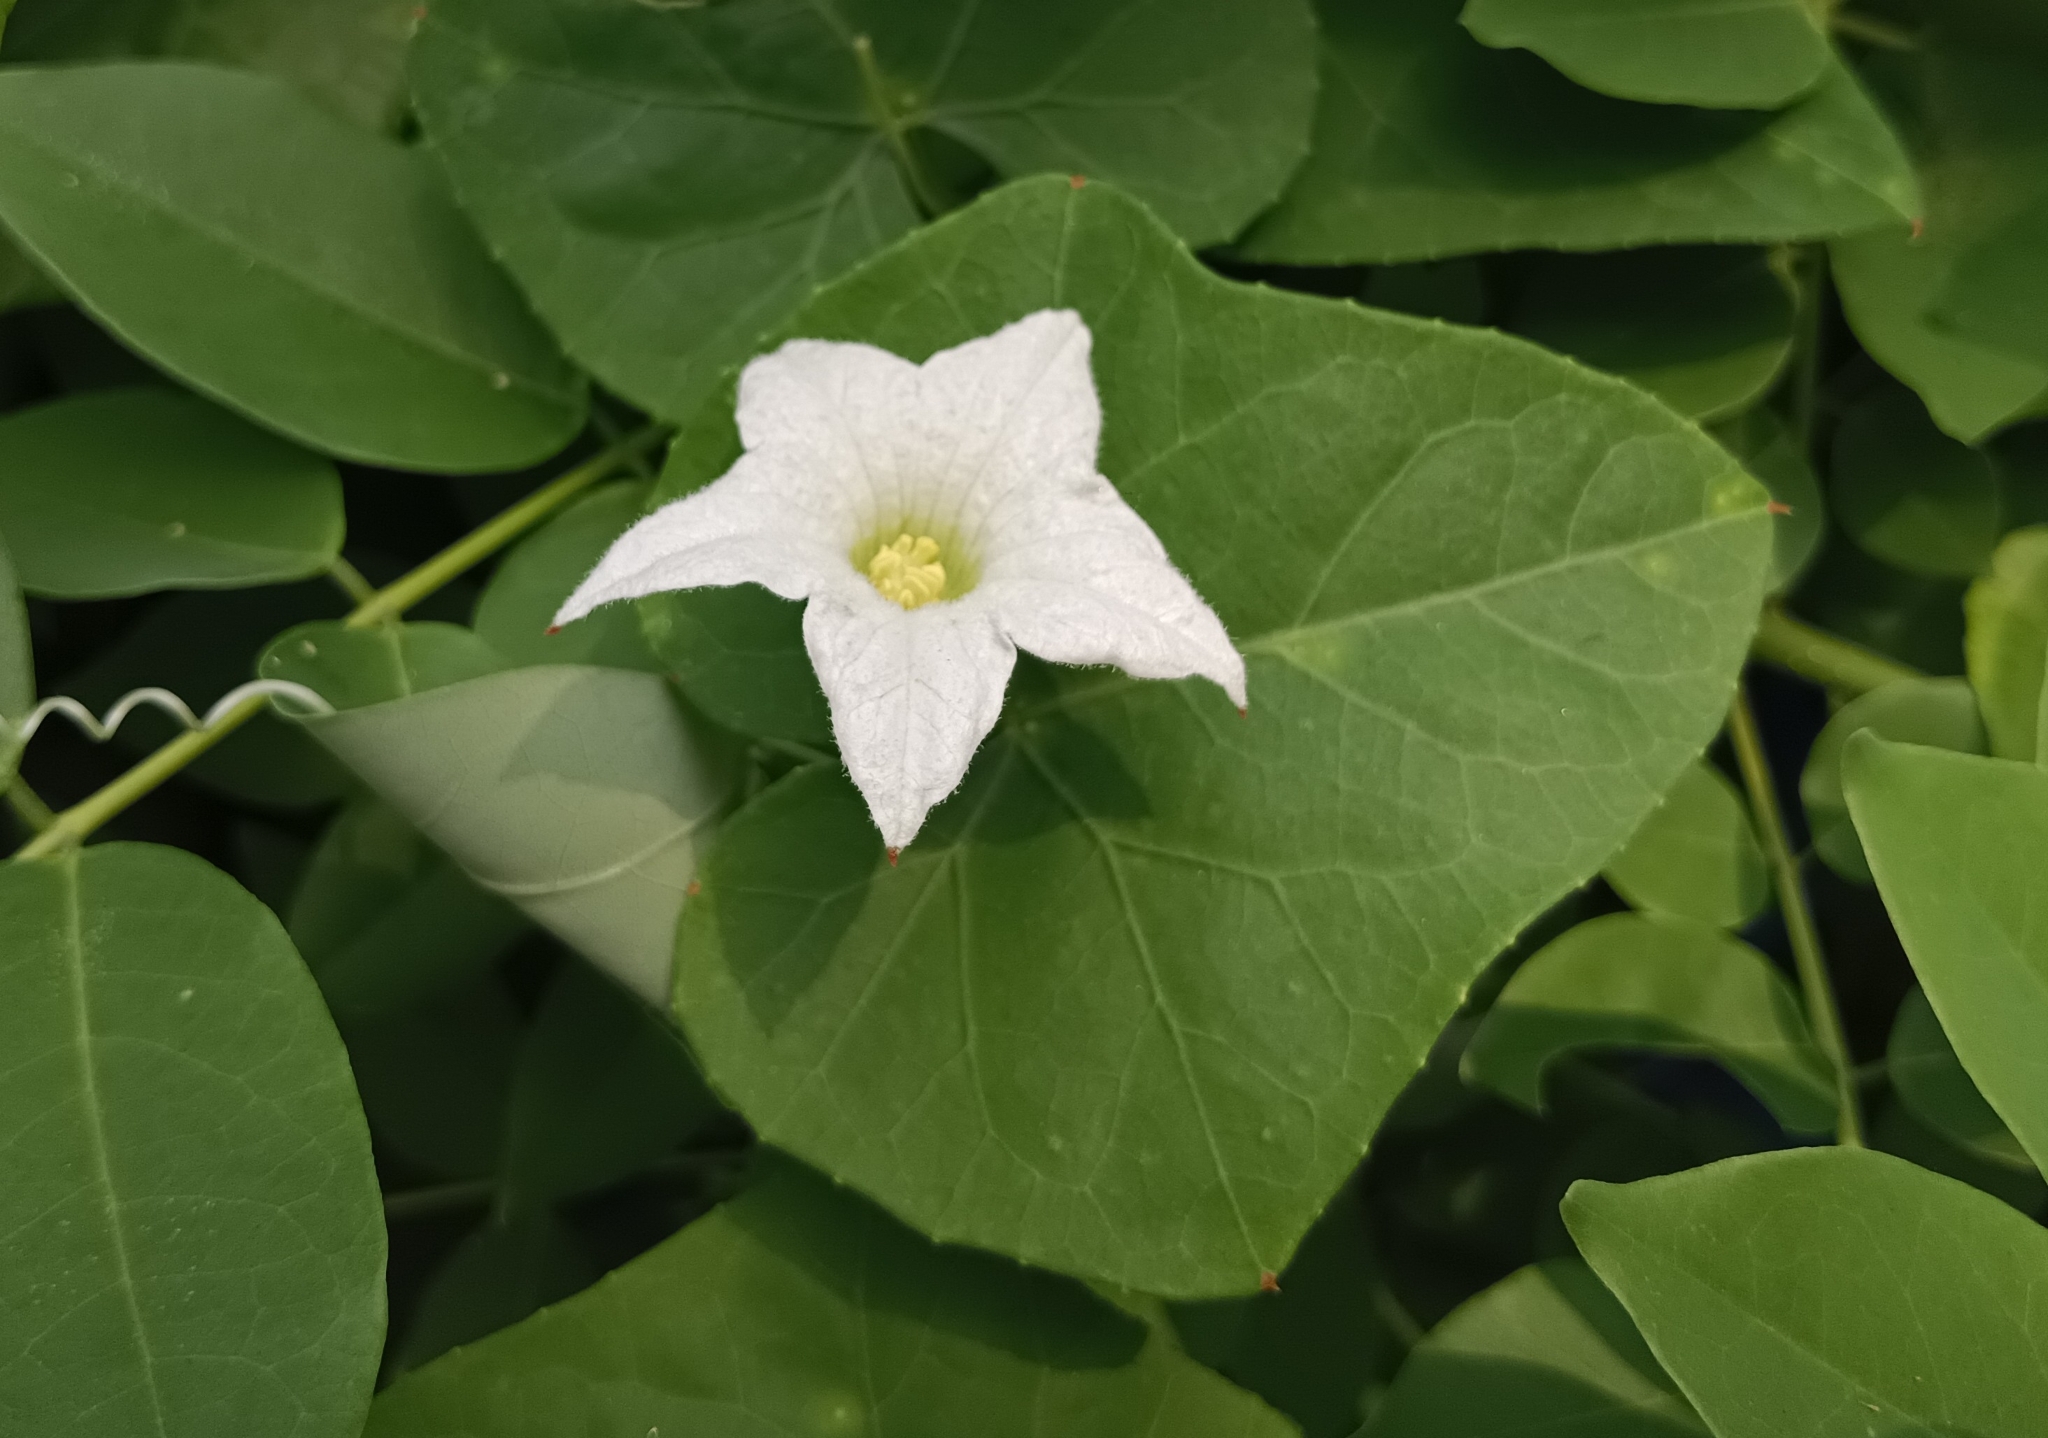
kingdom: Plantae
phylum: Tracheophyta
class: Magnoliopsida
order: Cucurbitales
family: Cucurbitaceae
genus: Coccinia
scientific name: Coccinia grandis
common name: Ivy gourd
